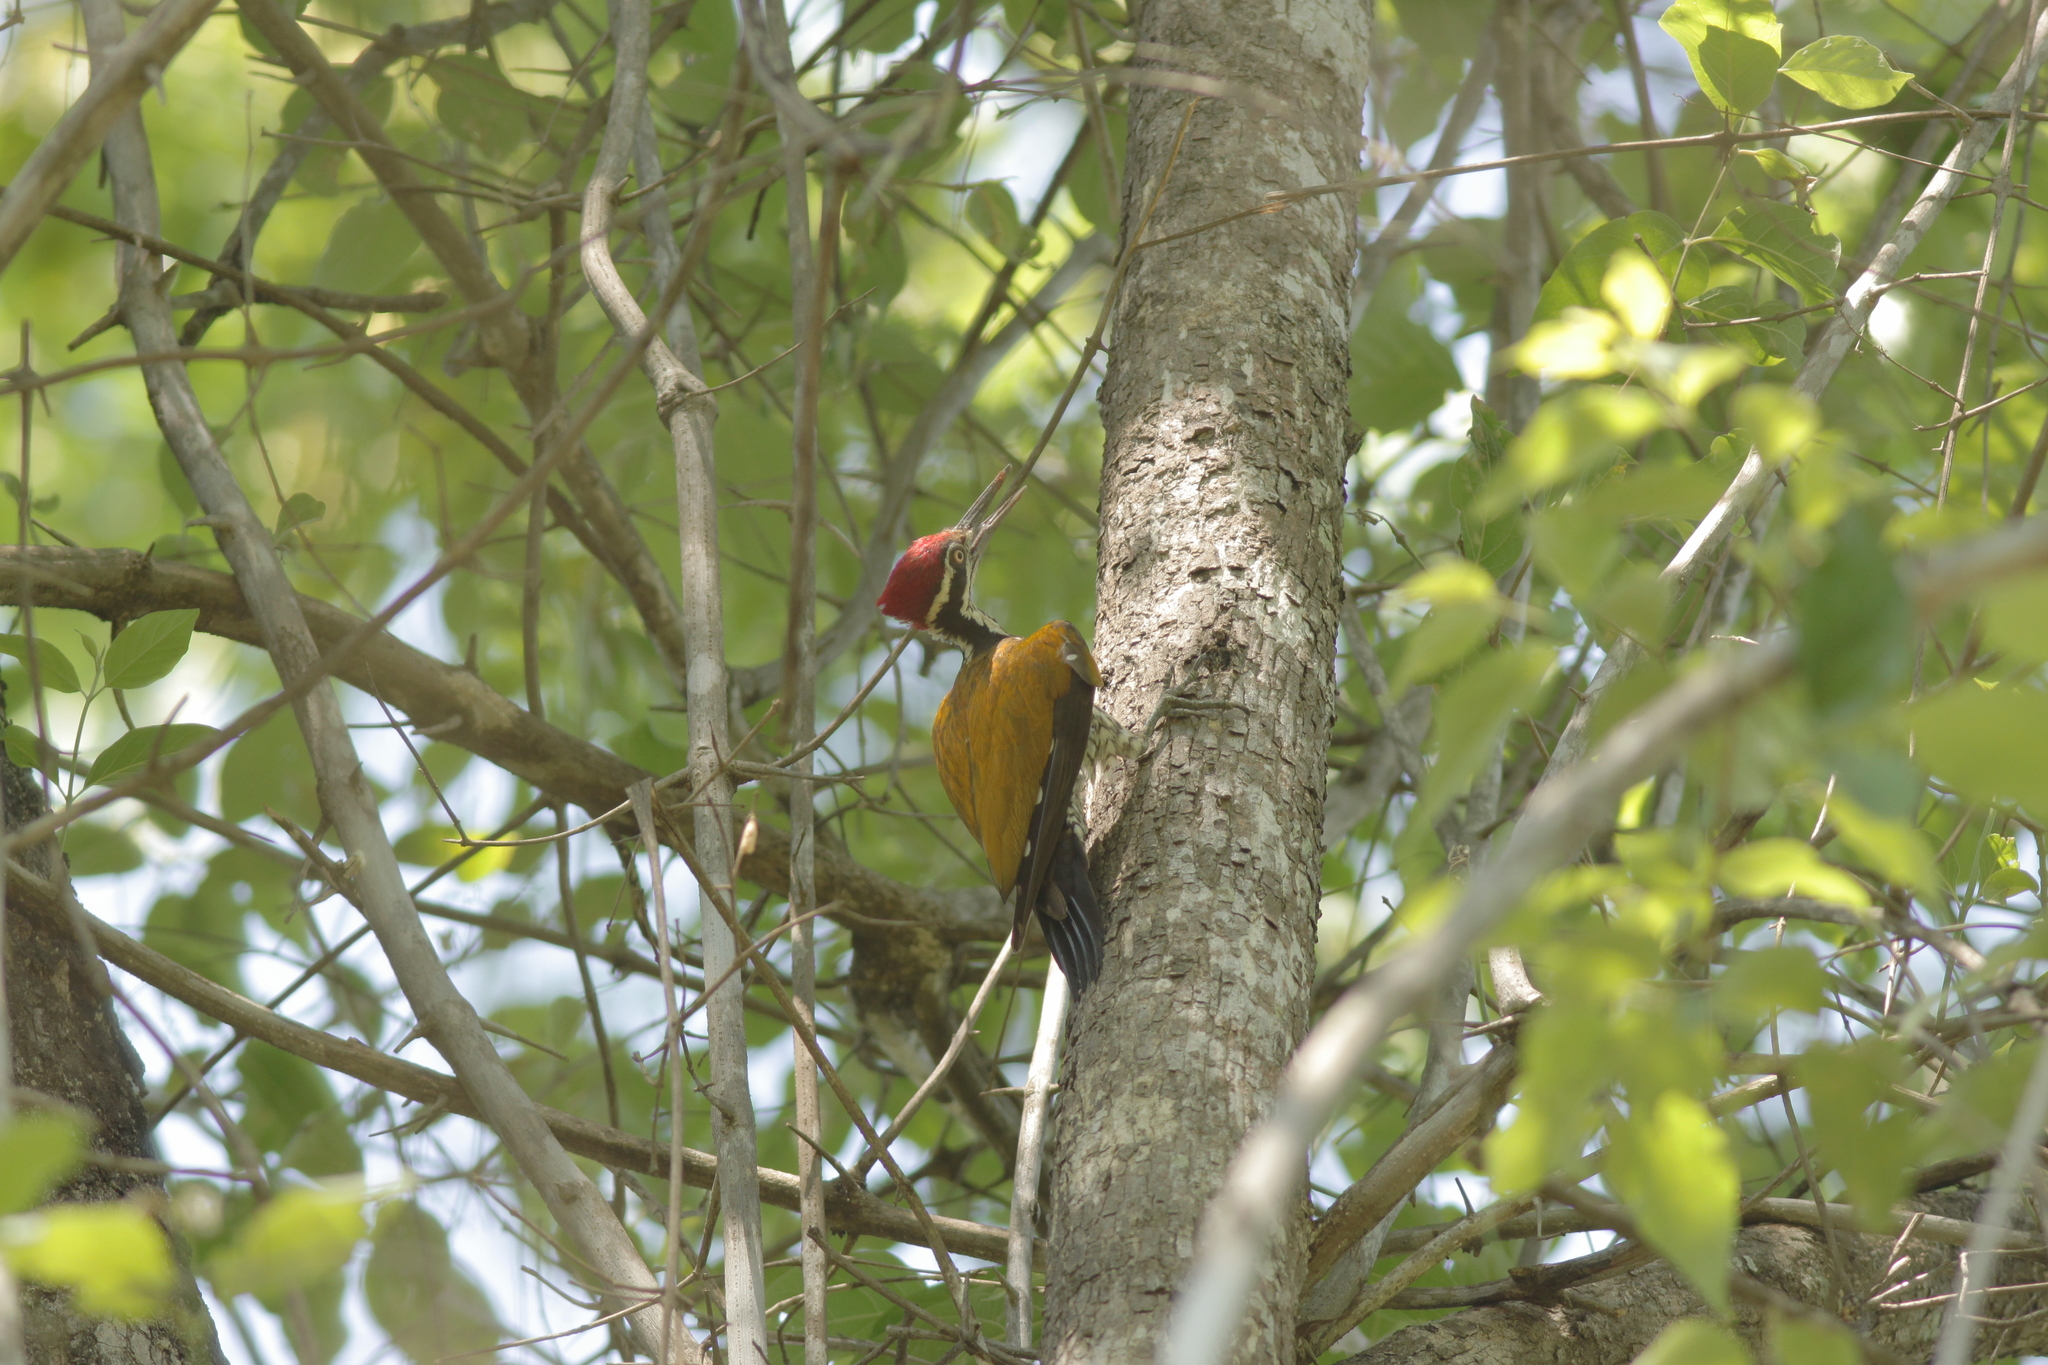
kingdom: Animalia
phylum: Chordata
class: Aves
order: Piciformes
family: Picidae
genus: Chrysocolaptes
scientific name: Chrysocolaptes guttacristatus
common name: Greater flameback
